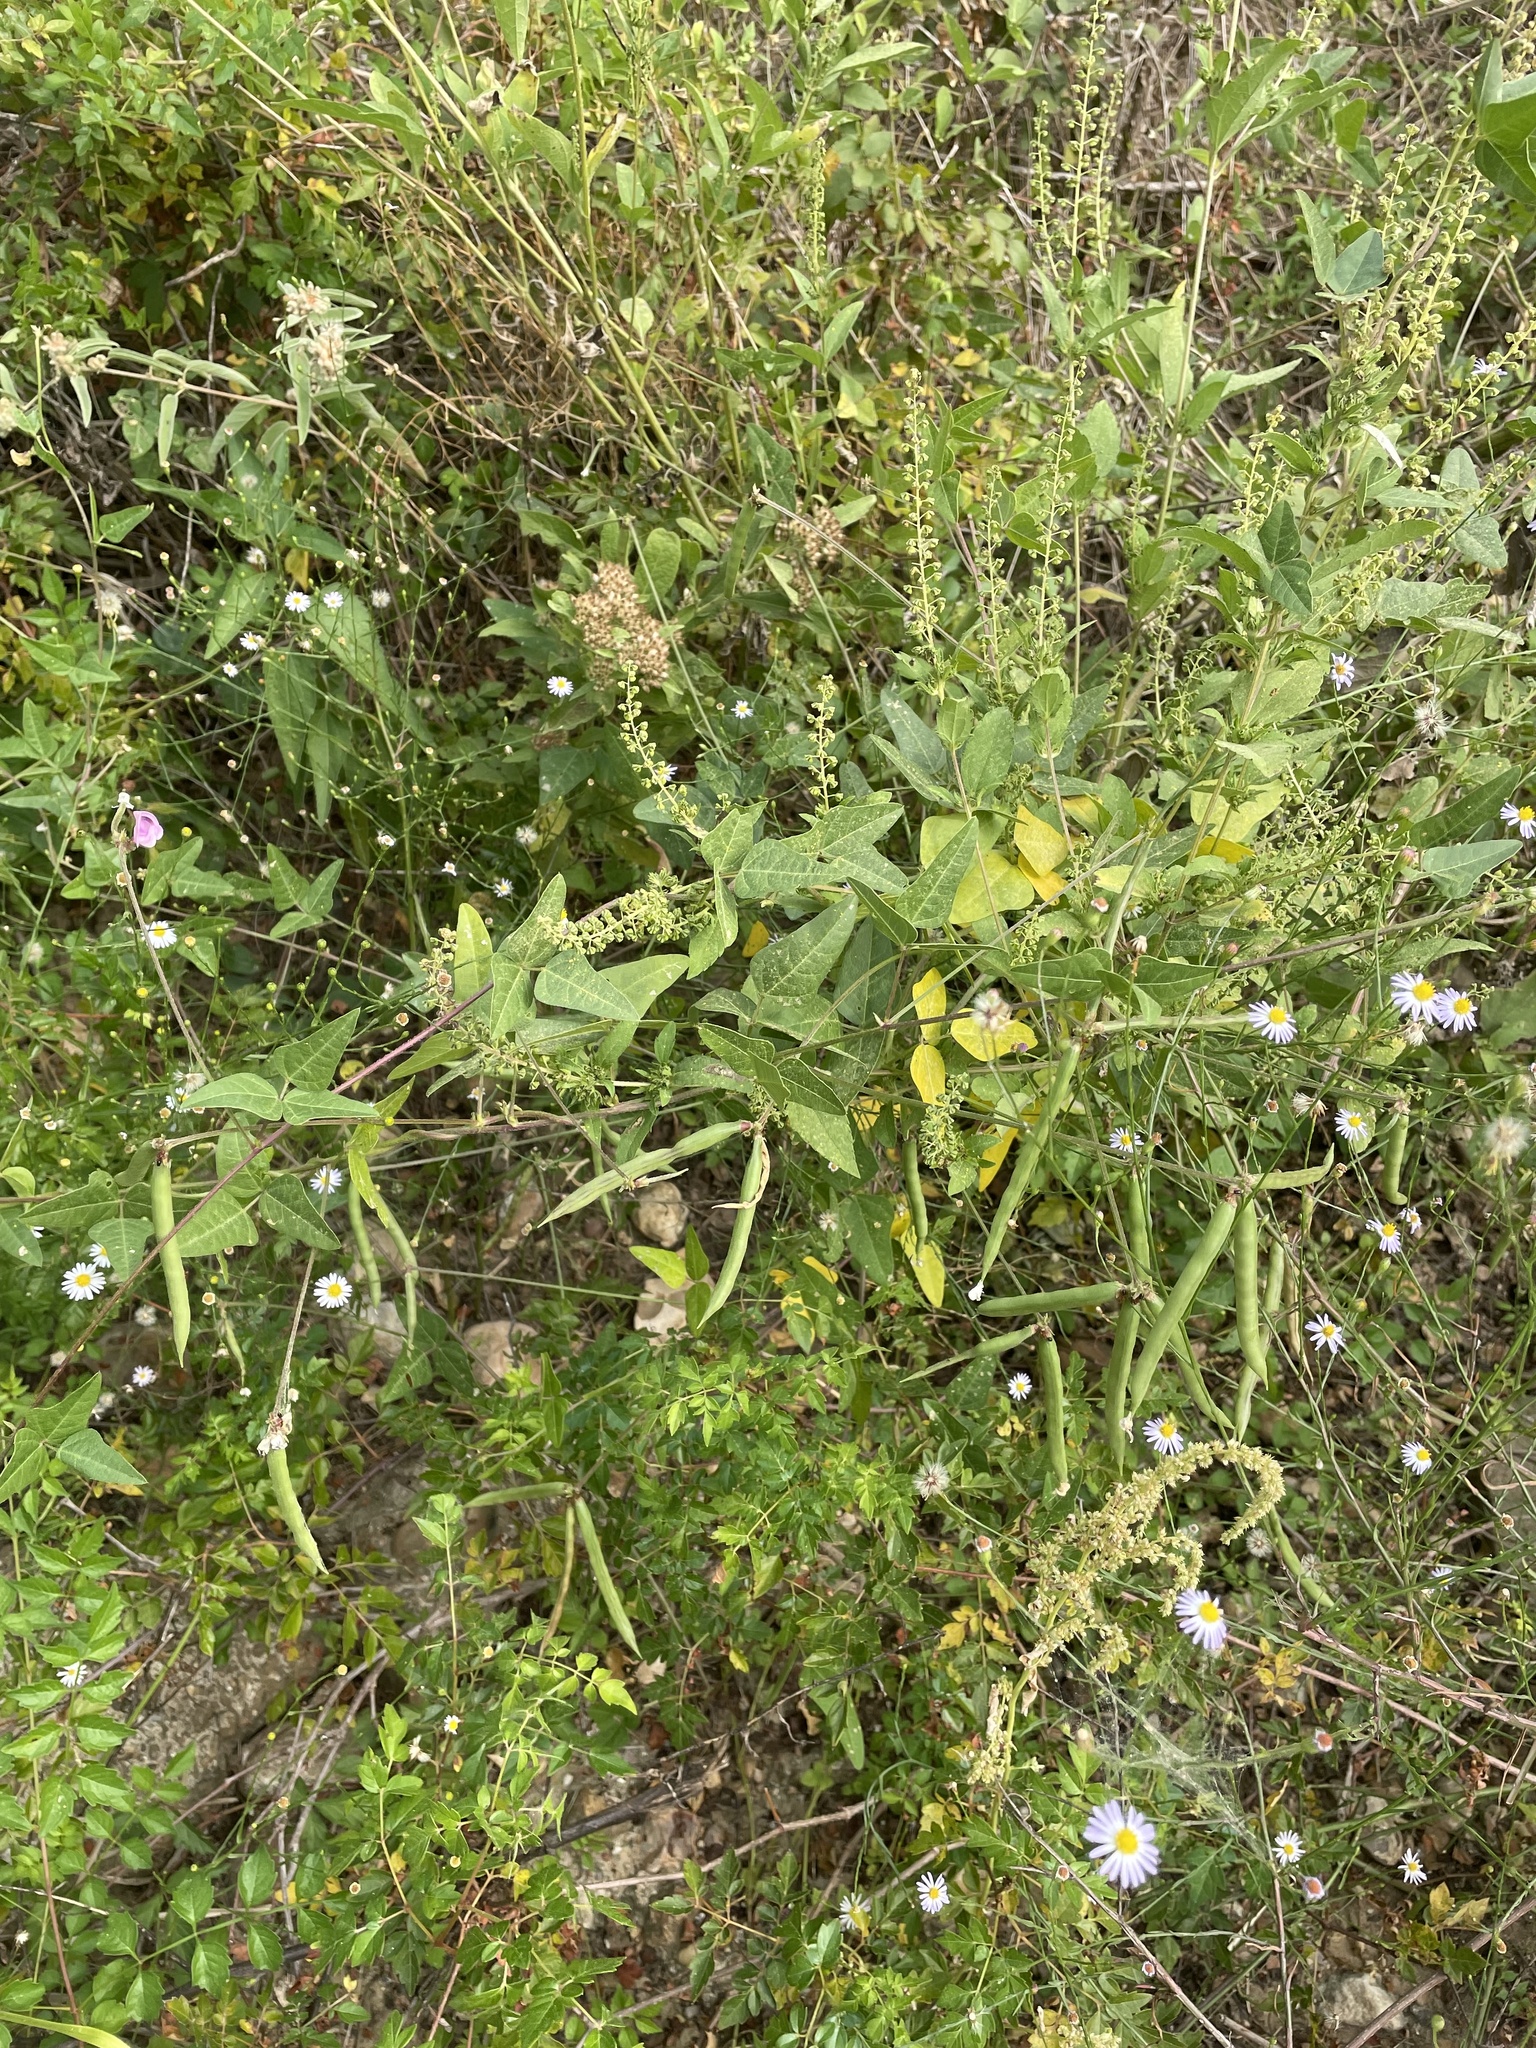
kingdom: Plantae
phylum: Tracheophyta
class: Magnoliopsida
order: Fabales
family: Fabaceae
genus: Strophostyles
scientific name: Strophostyles helvola
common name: Trailing wild bean
